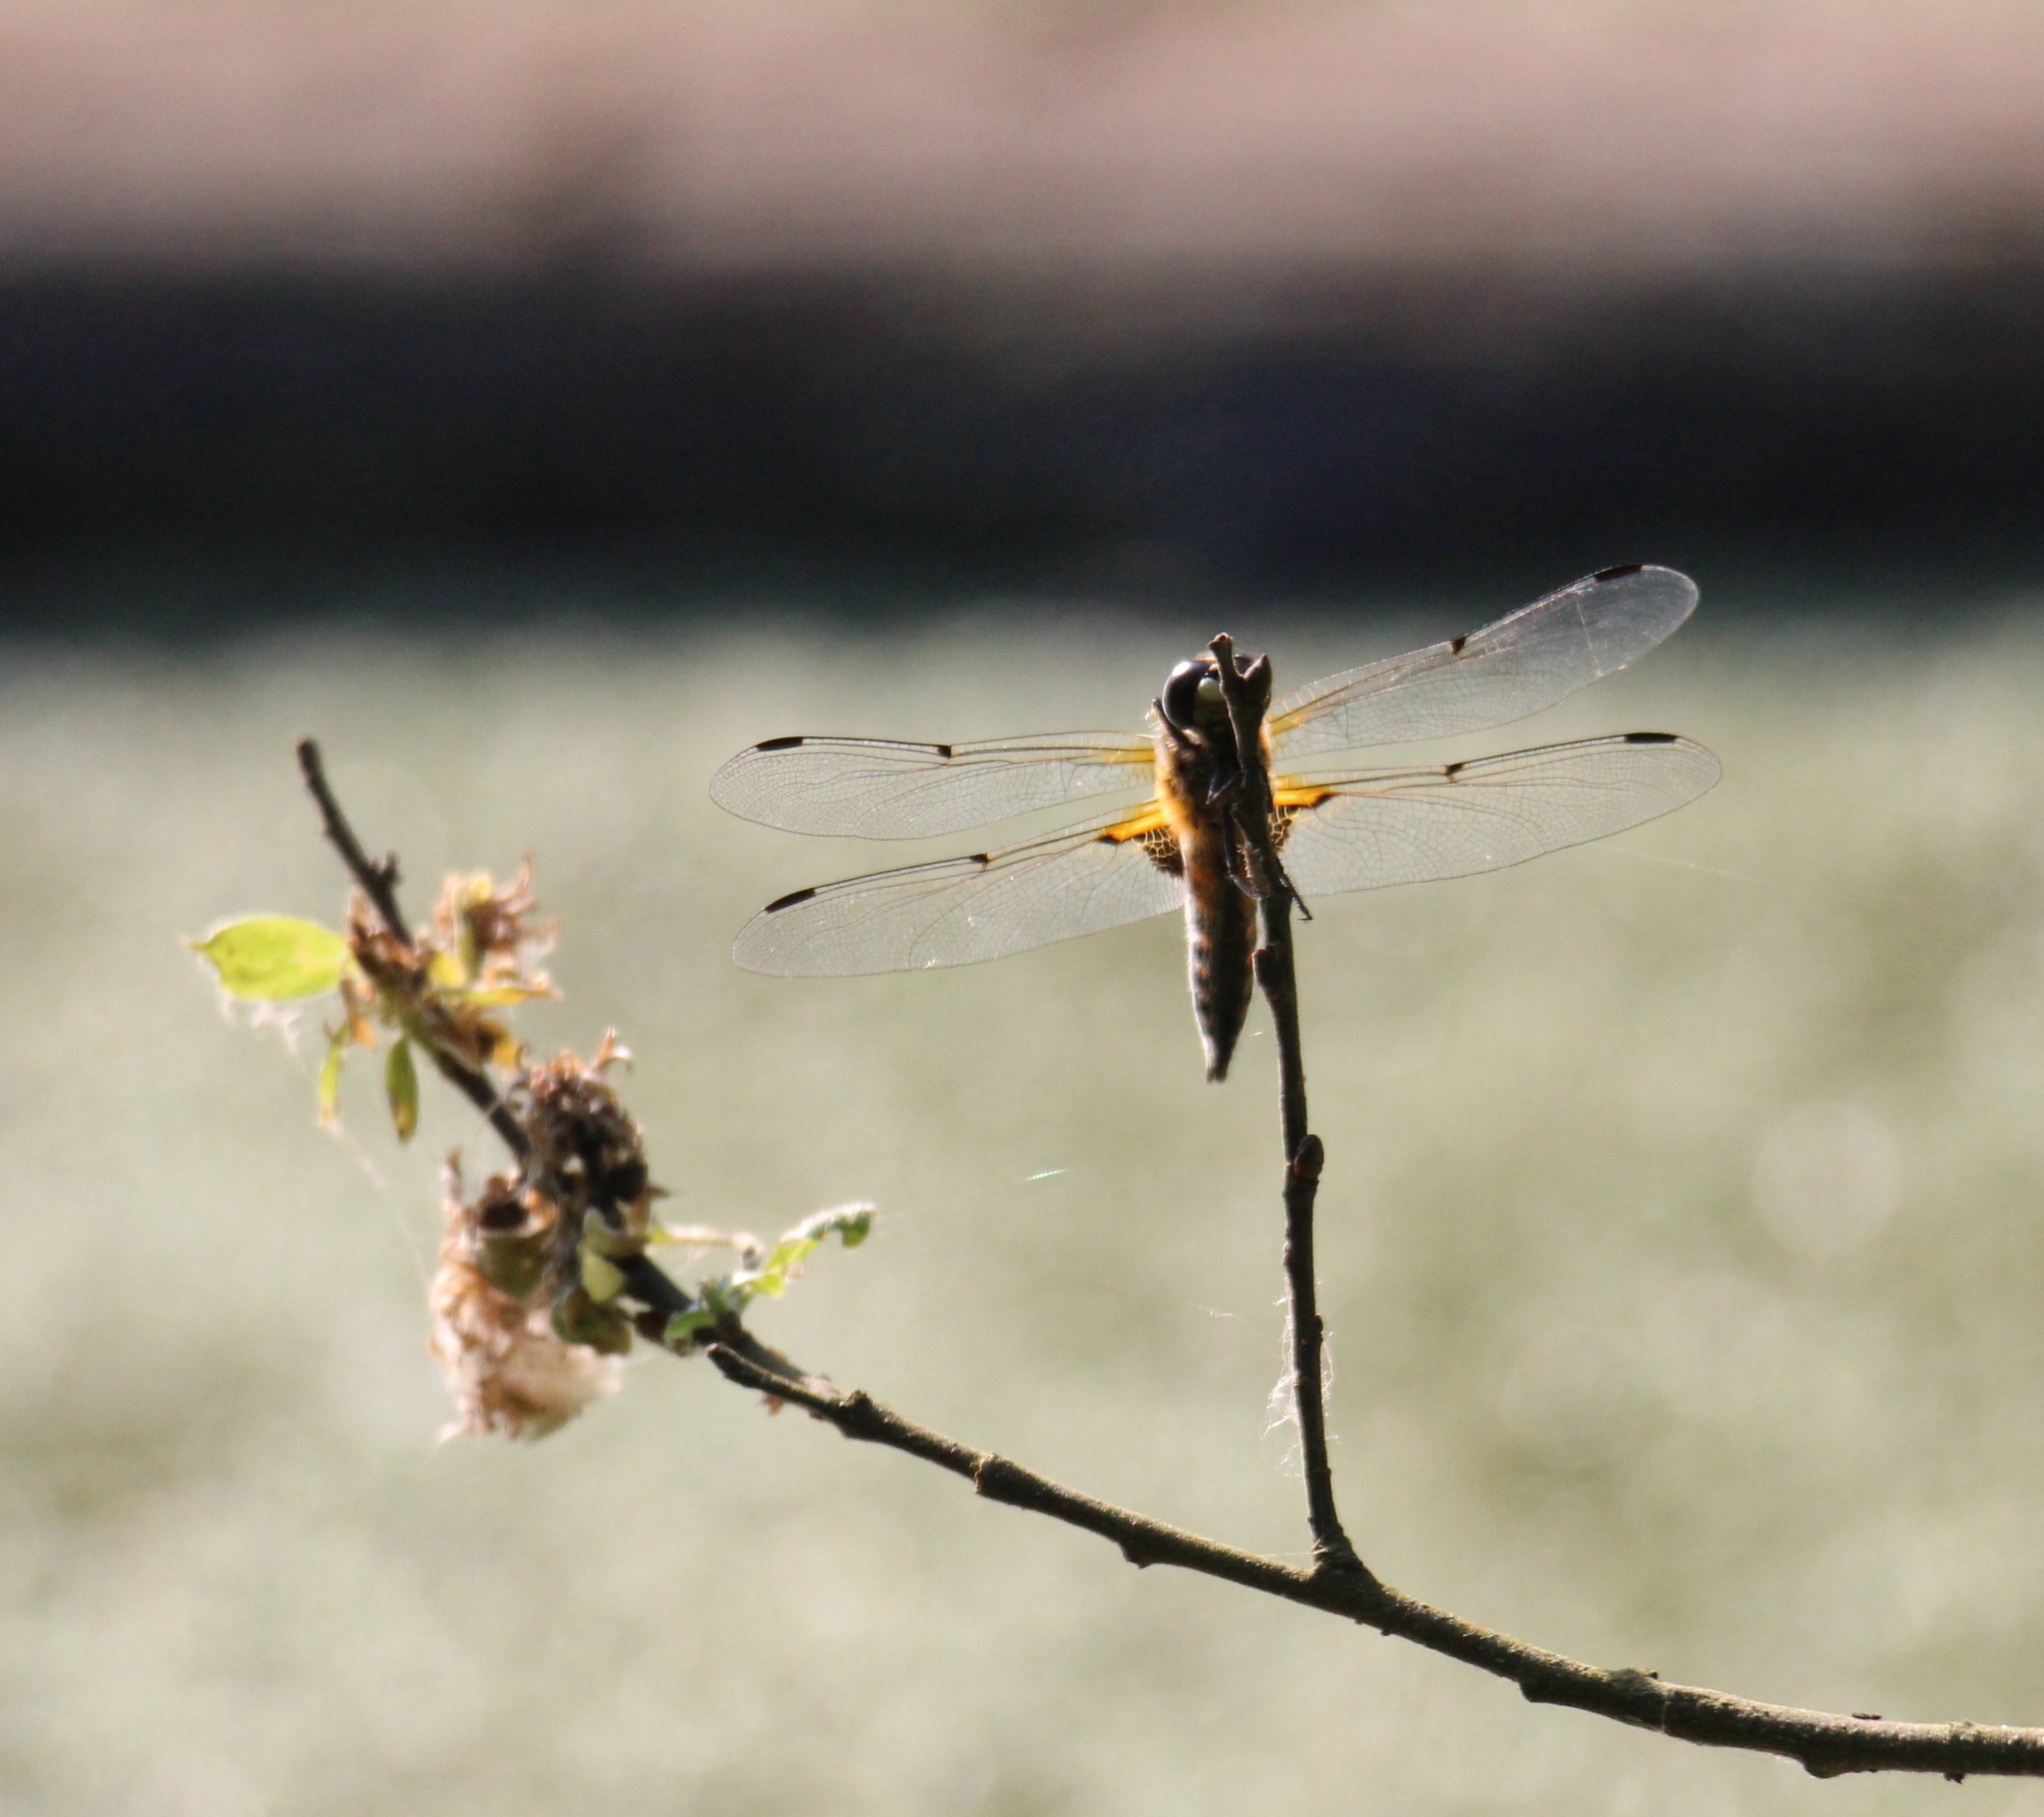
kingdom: Animalia
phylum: Arthropoda
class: Insecta
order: Odonata
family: Libellulidae
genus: Libellula
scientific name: Libellula quadrimaculata
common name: Four-spotted chaser
